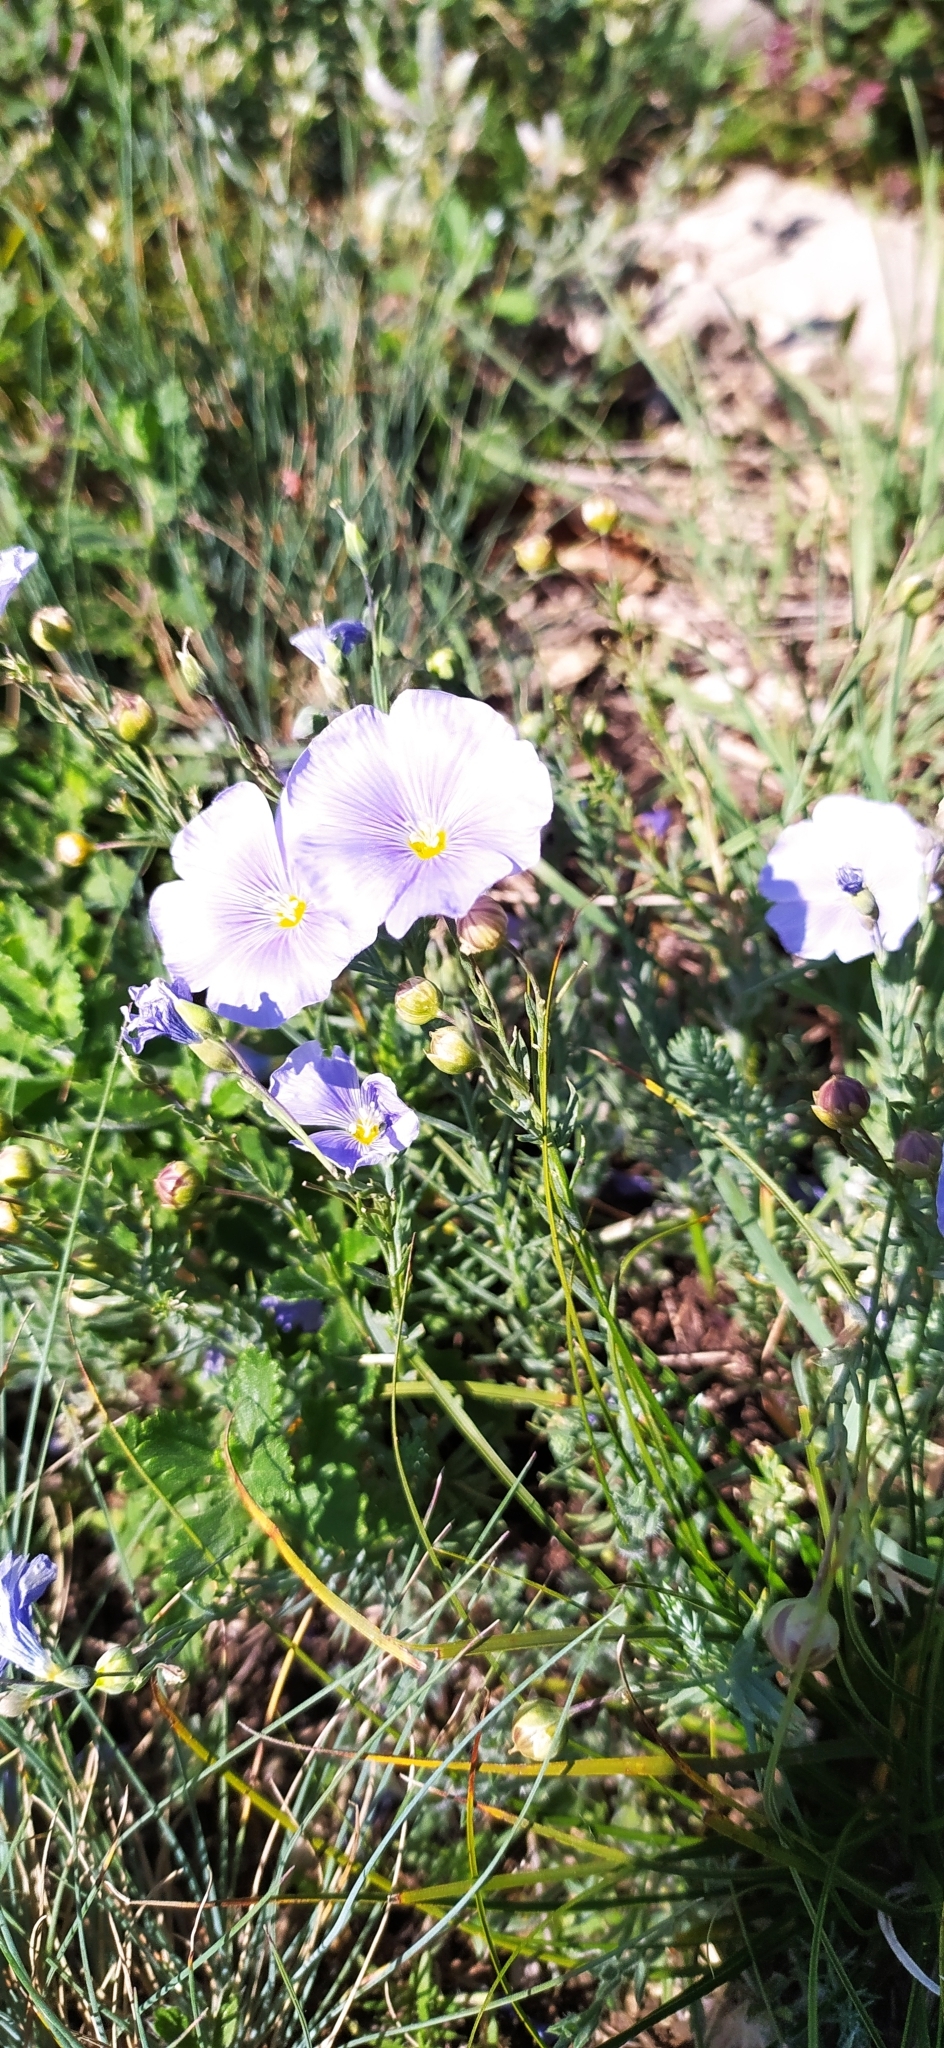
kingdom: Plantae
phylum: Tracheophyta
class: Magnoliopsida
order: Malpighiales
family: Linaceae
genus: Linum
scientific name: Linum nervosum
